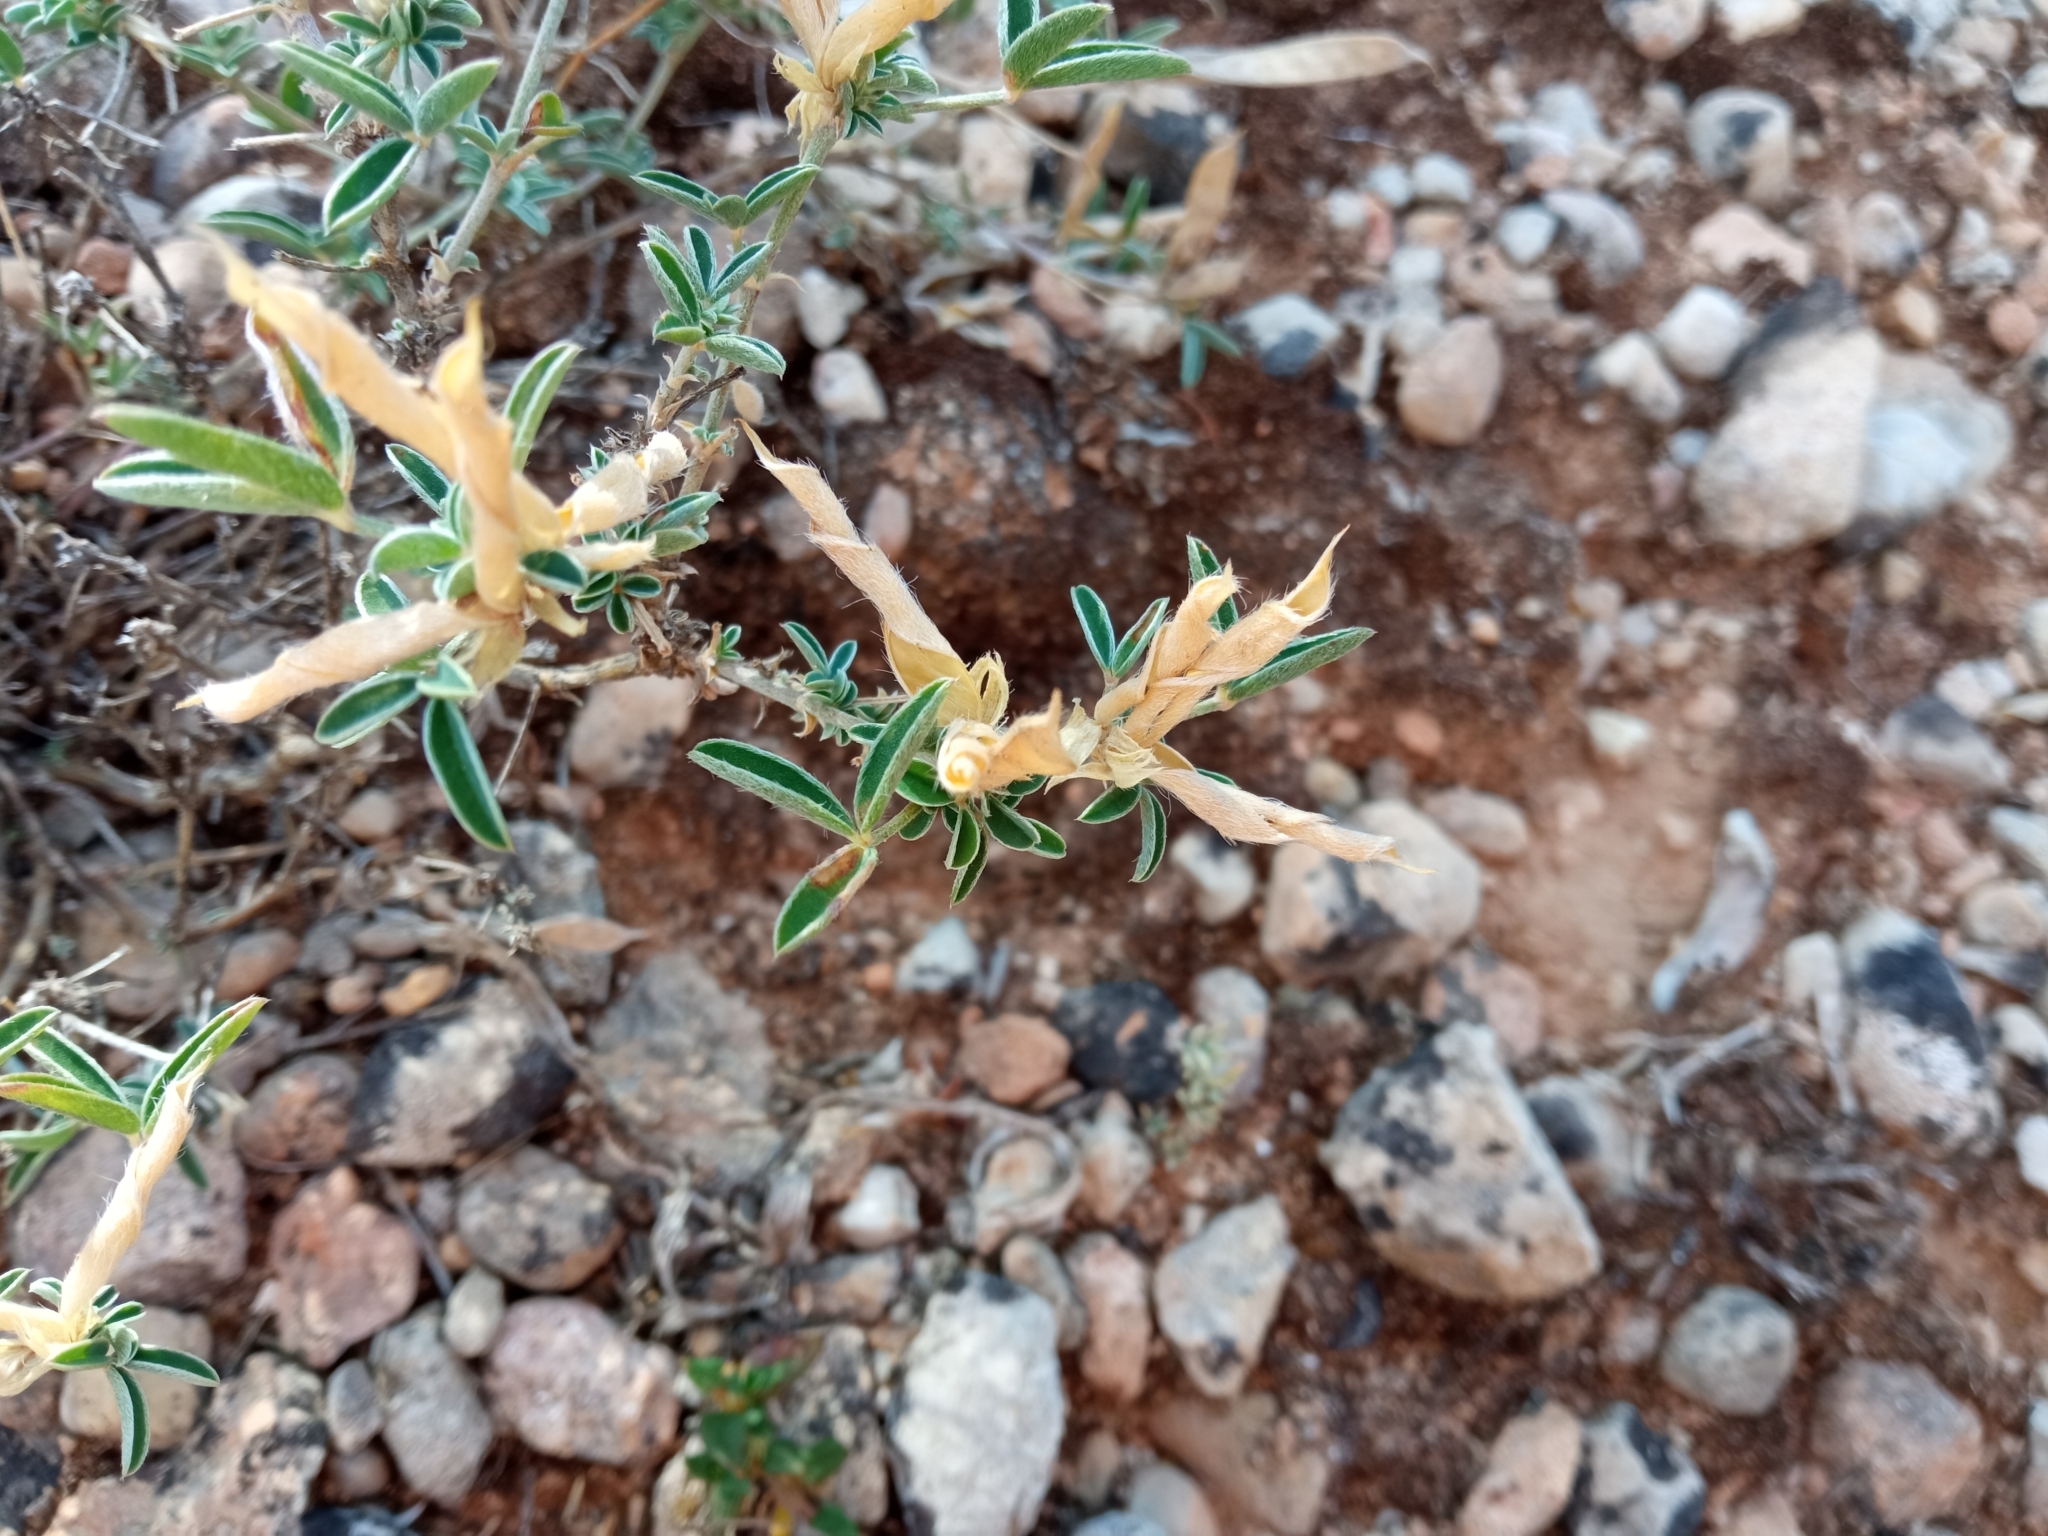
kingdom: Plantae
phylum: Tracheophyta
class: Magnoliopsida
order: Fabales
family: Fabaceae
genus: Argyrolobium
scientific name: Argyrolobium zanonii
